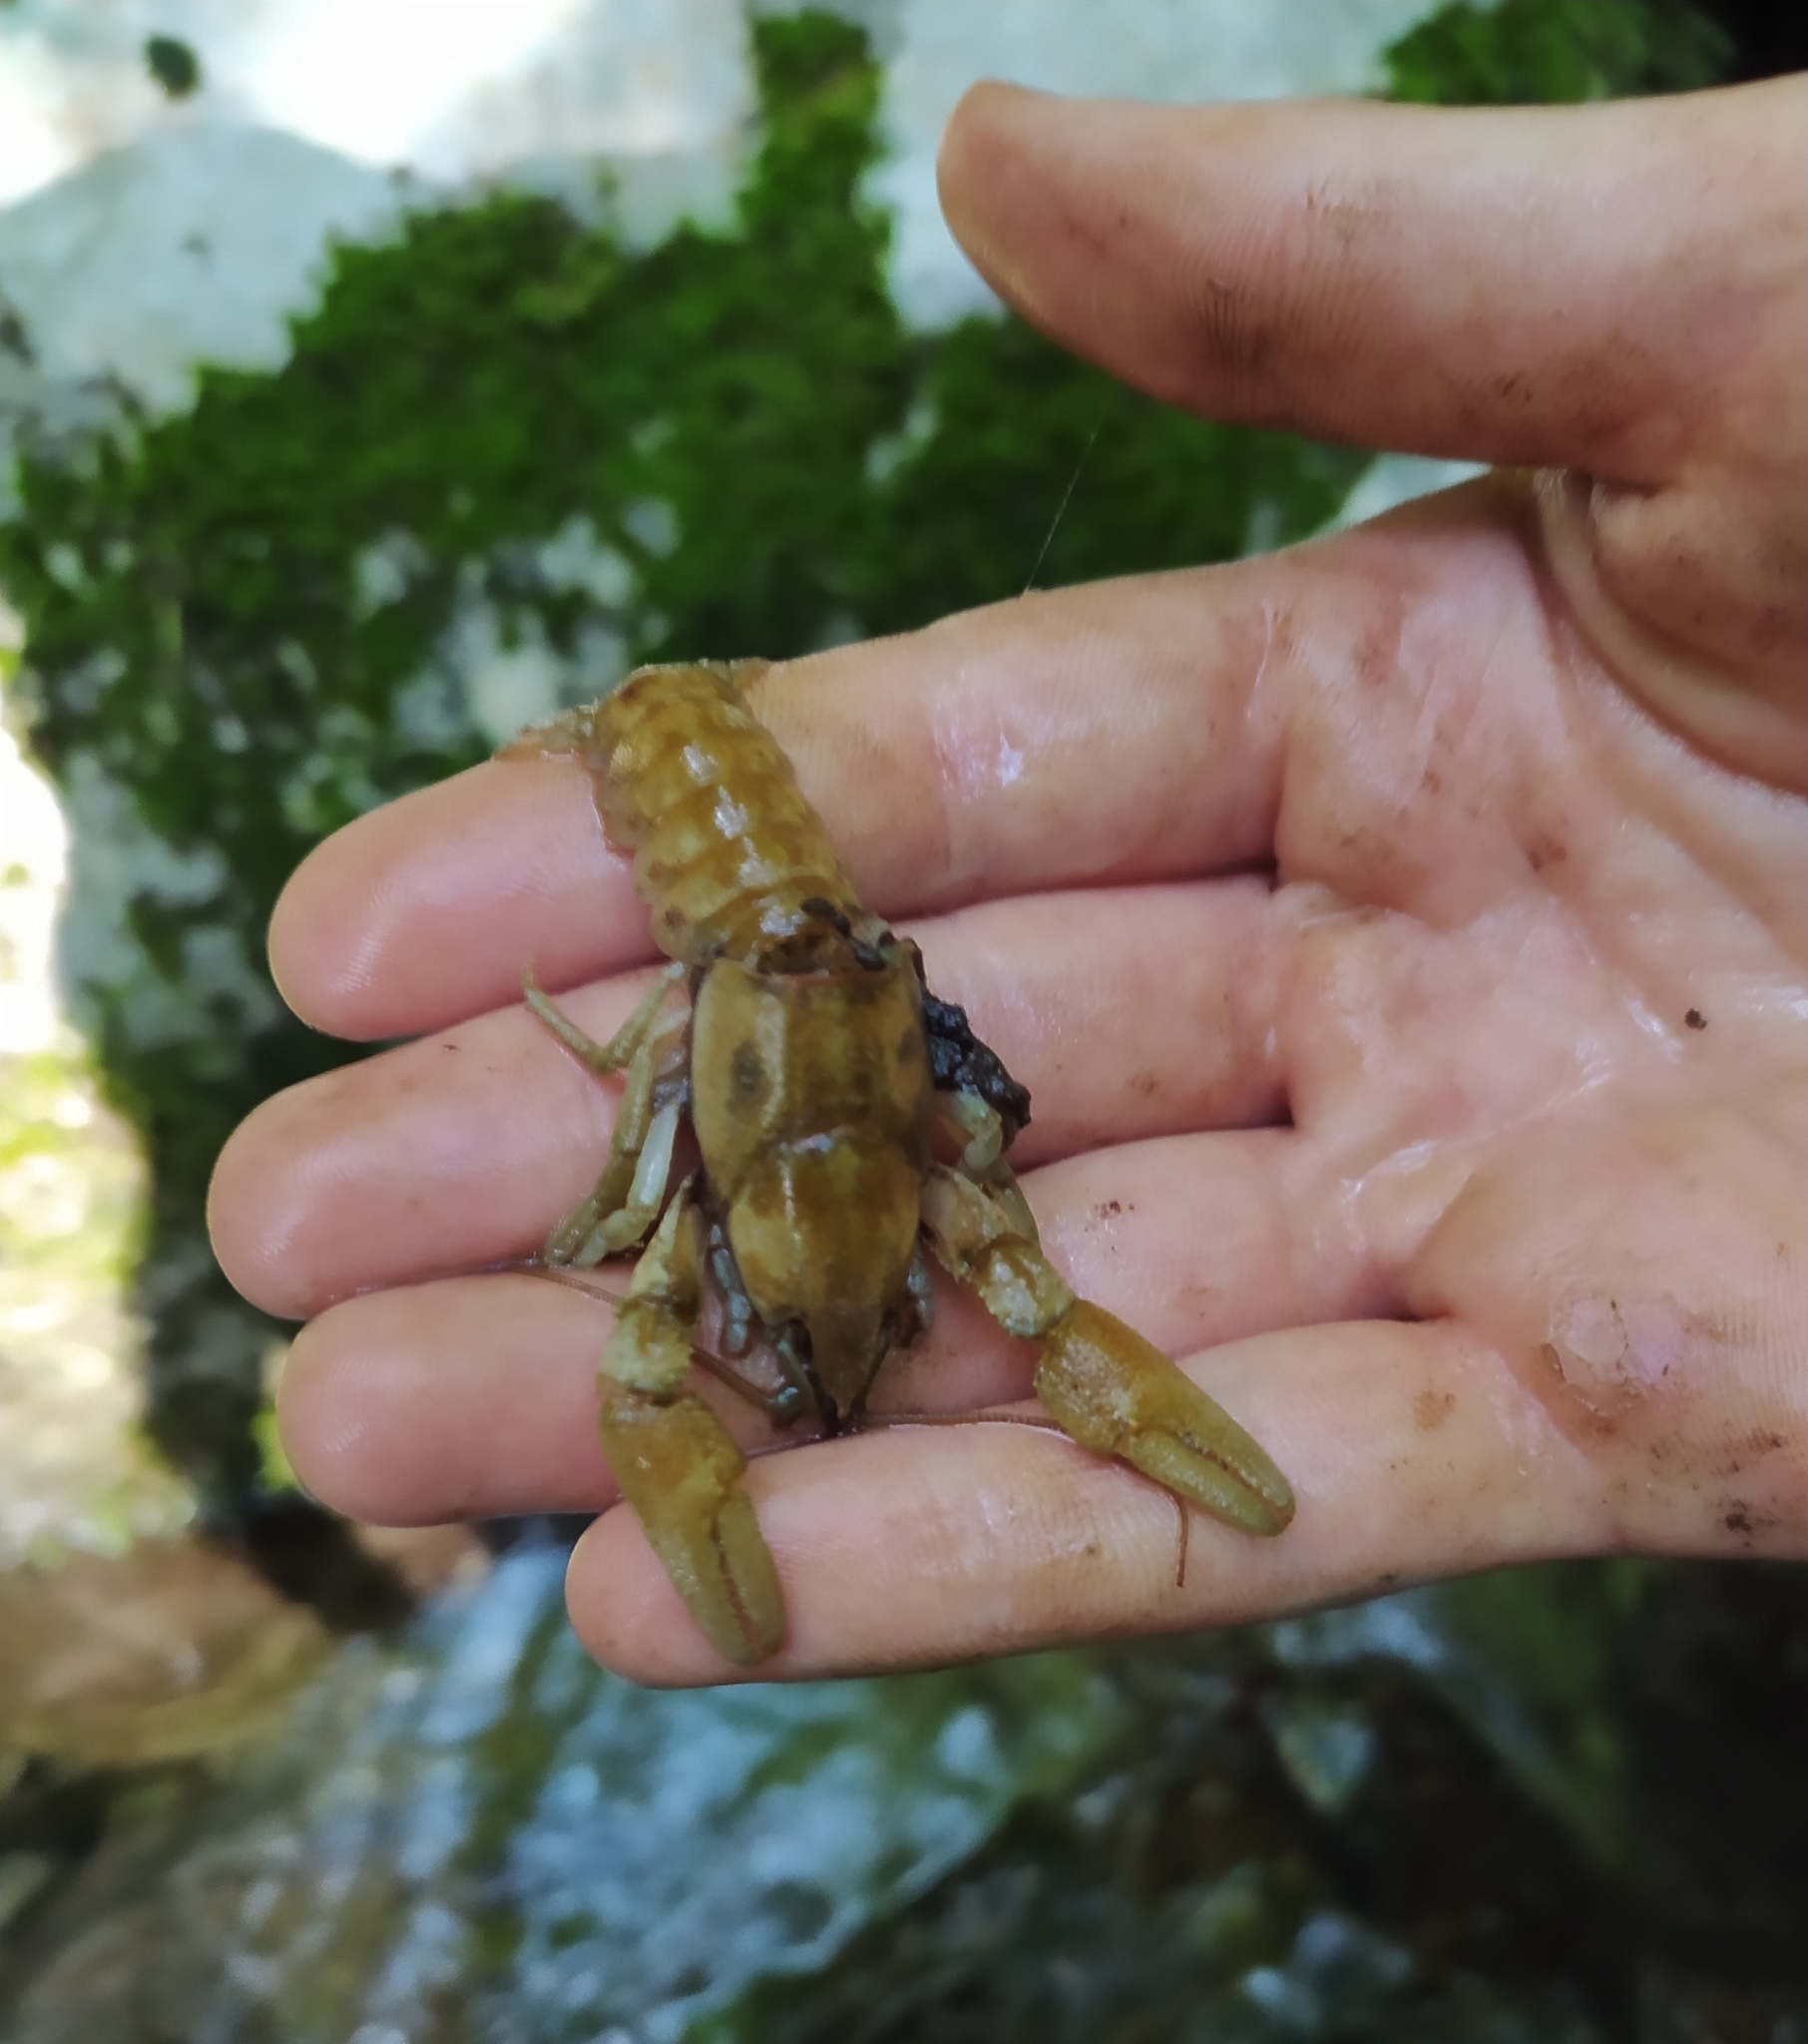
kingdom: Animalia
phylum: Arthropoda
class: Malacostraca
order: Decapoda
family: Astacidae
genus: Austropotamobius
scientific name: Austropotamobius pallipes
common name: White-clawed crayfish
